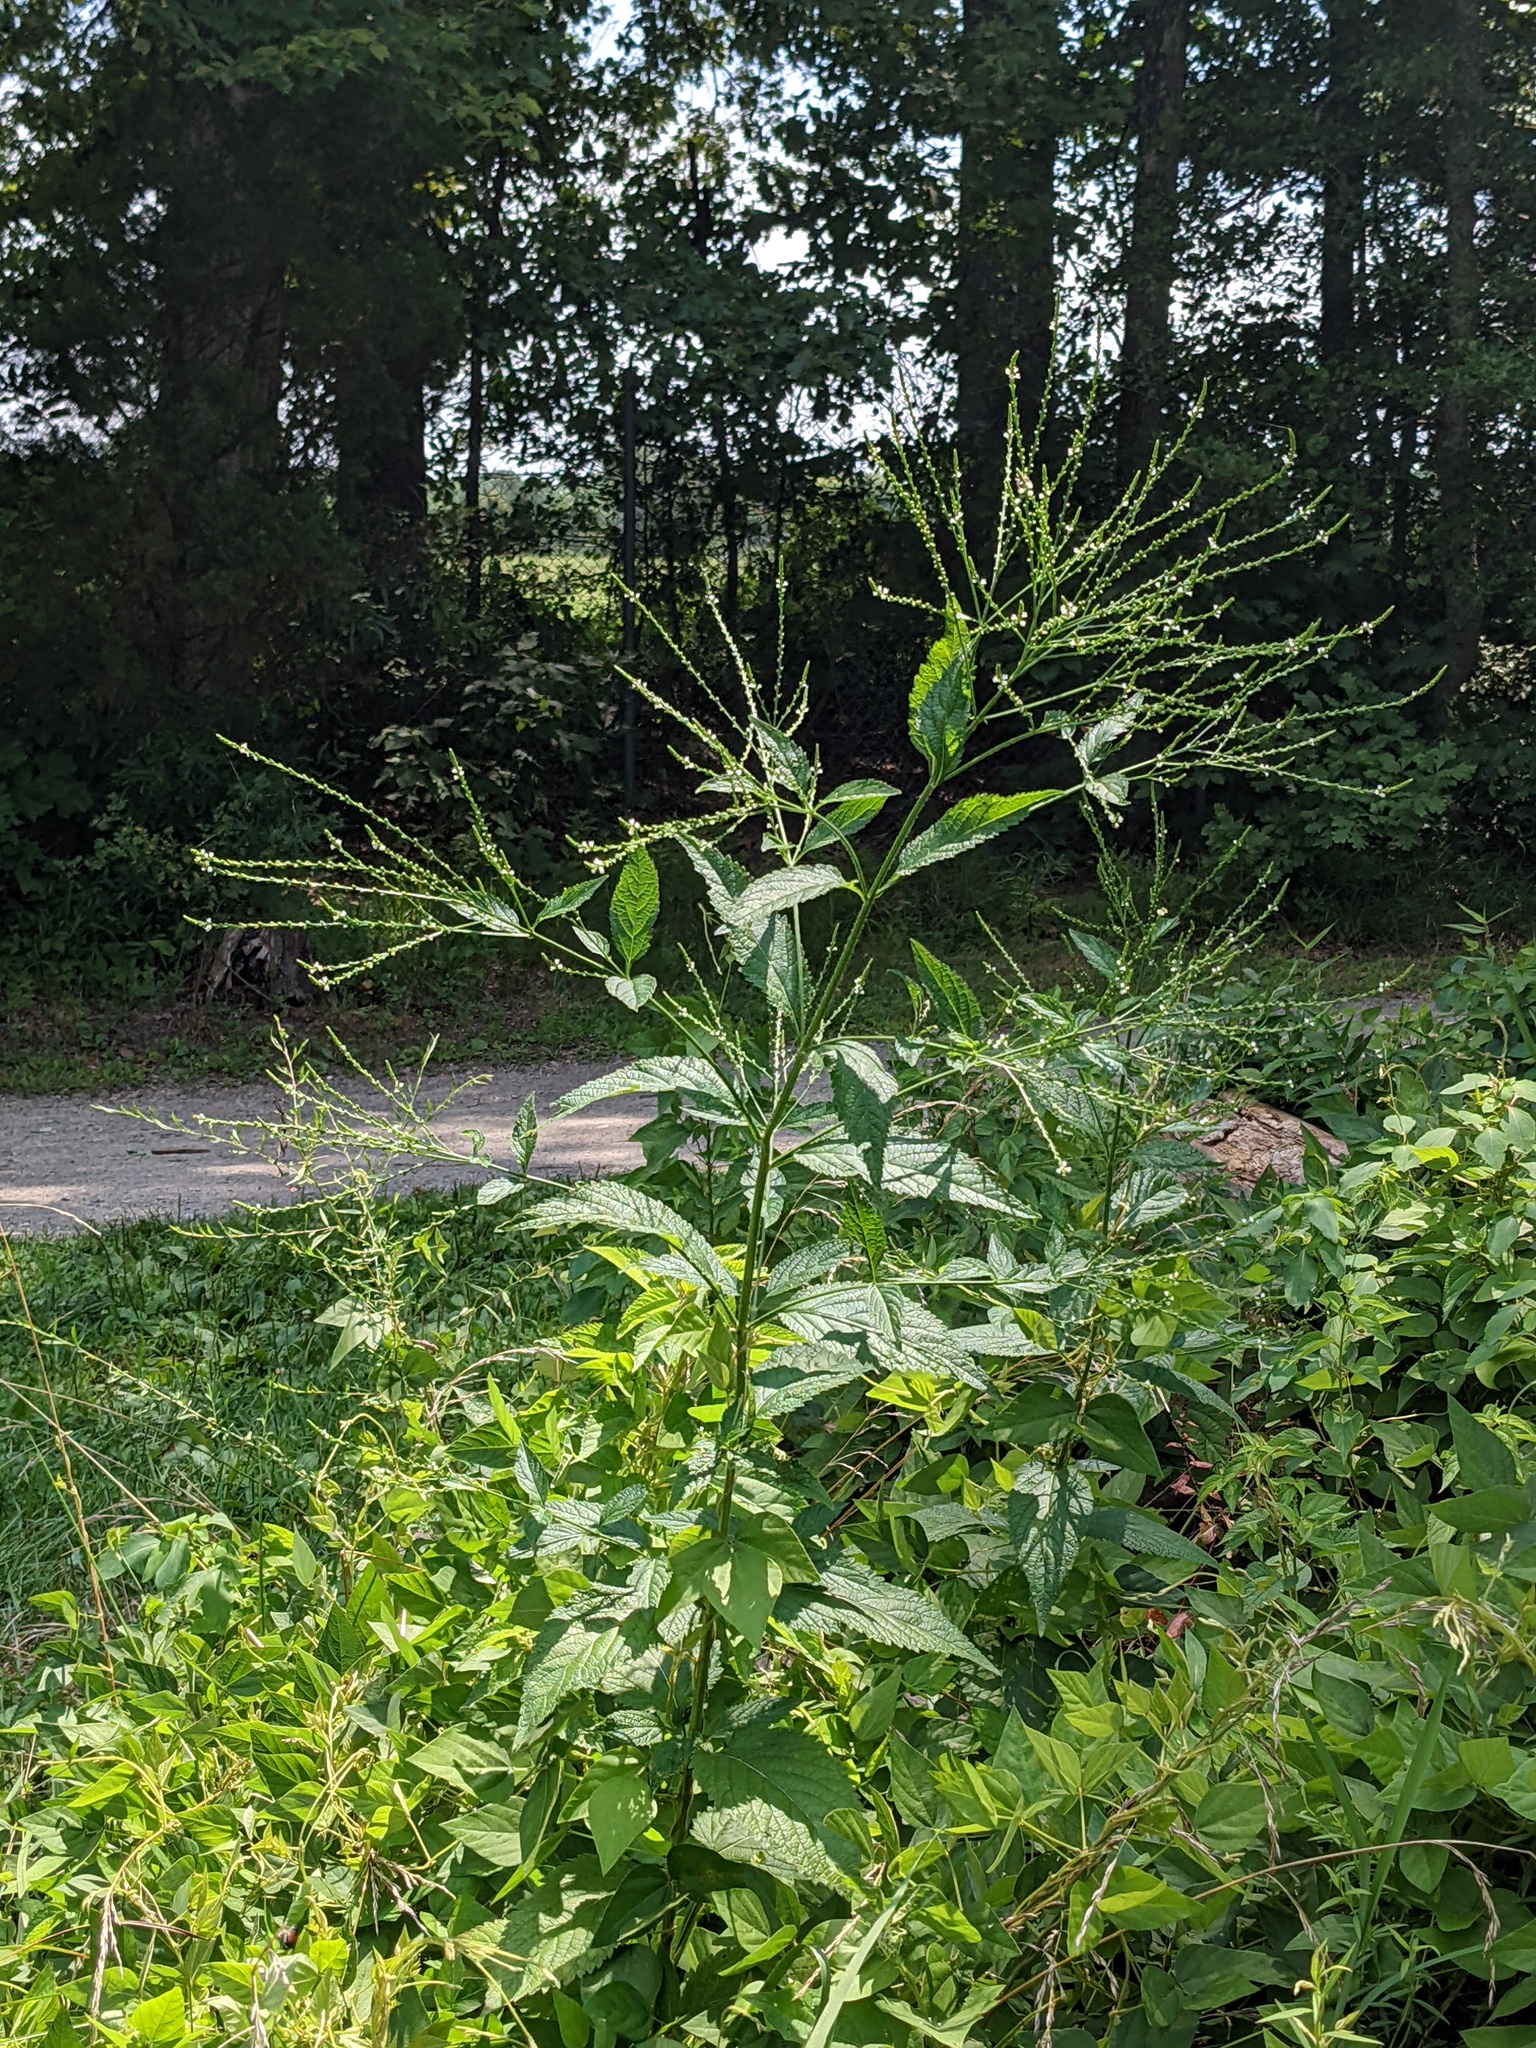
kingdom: Plantae
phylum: Tracheophyta
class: Magnoliopsida
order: Lamiales
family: Verbenaceae
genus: Verbena
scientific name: Verbena urticifolia
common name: Nettle-leaved vervain
